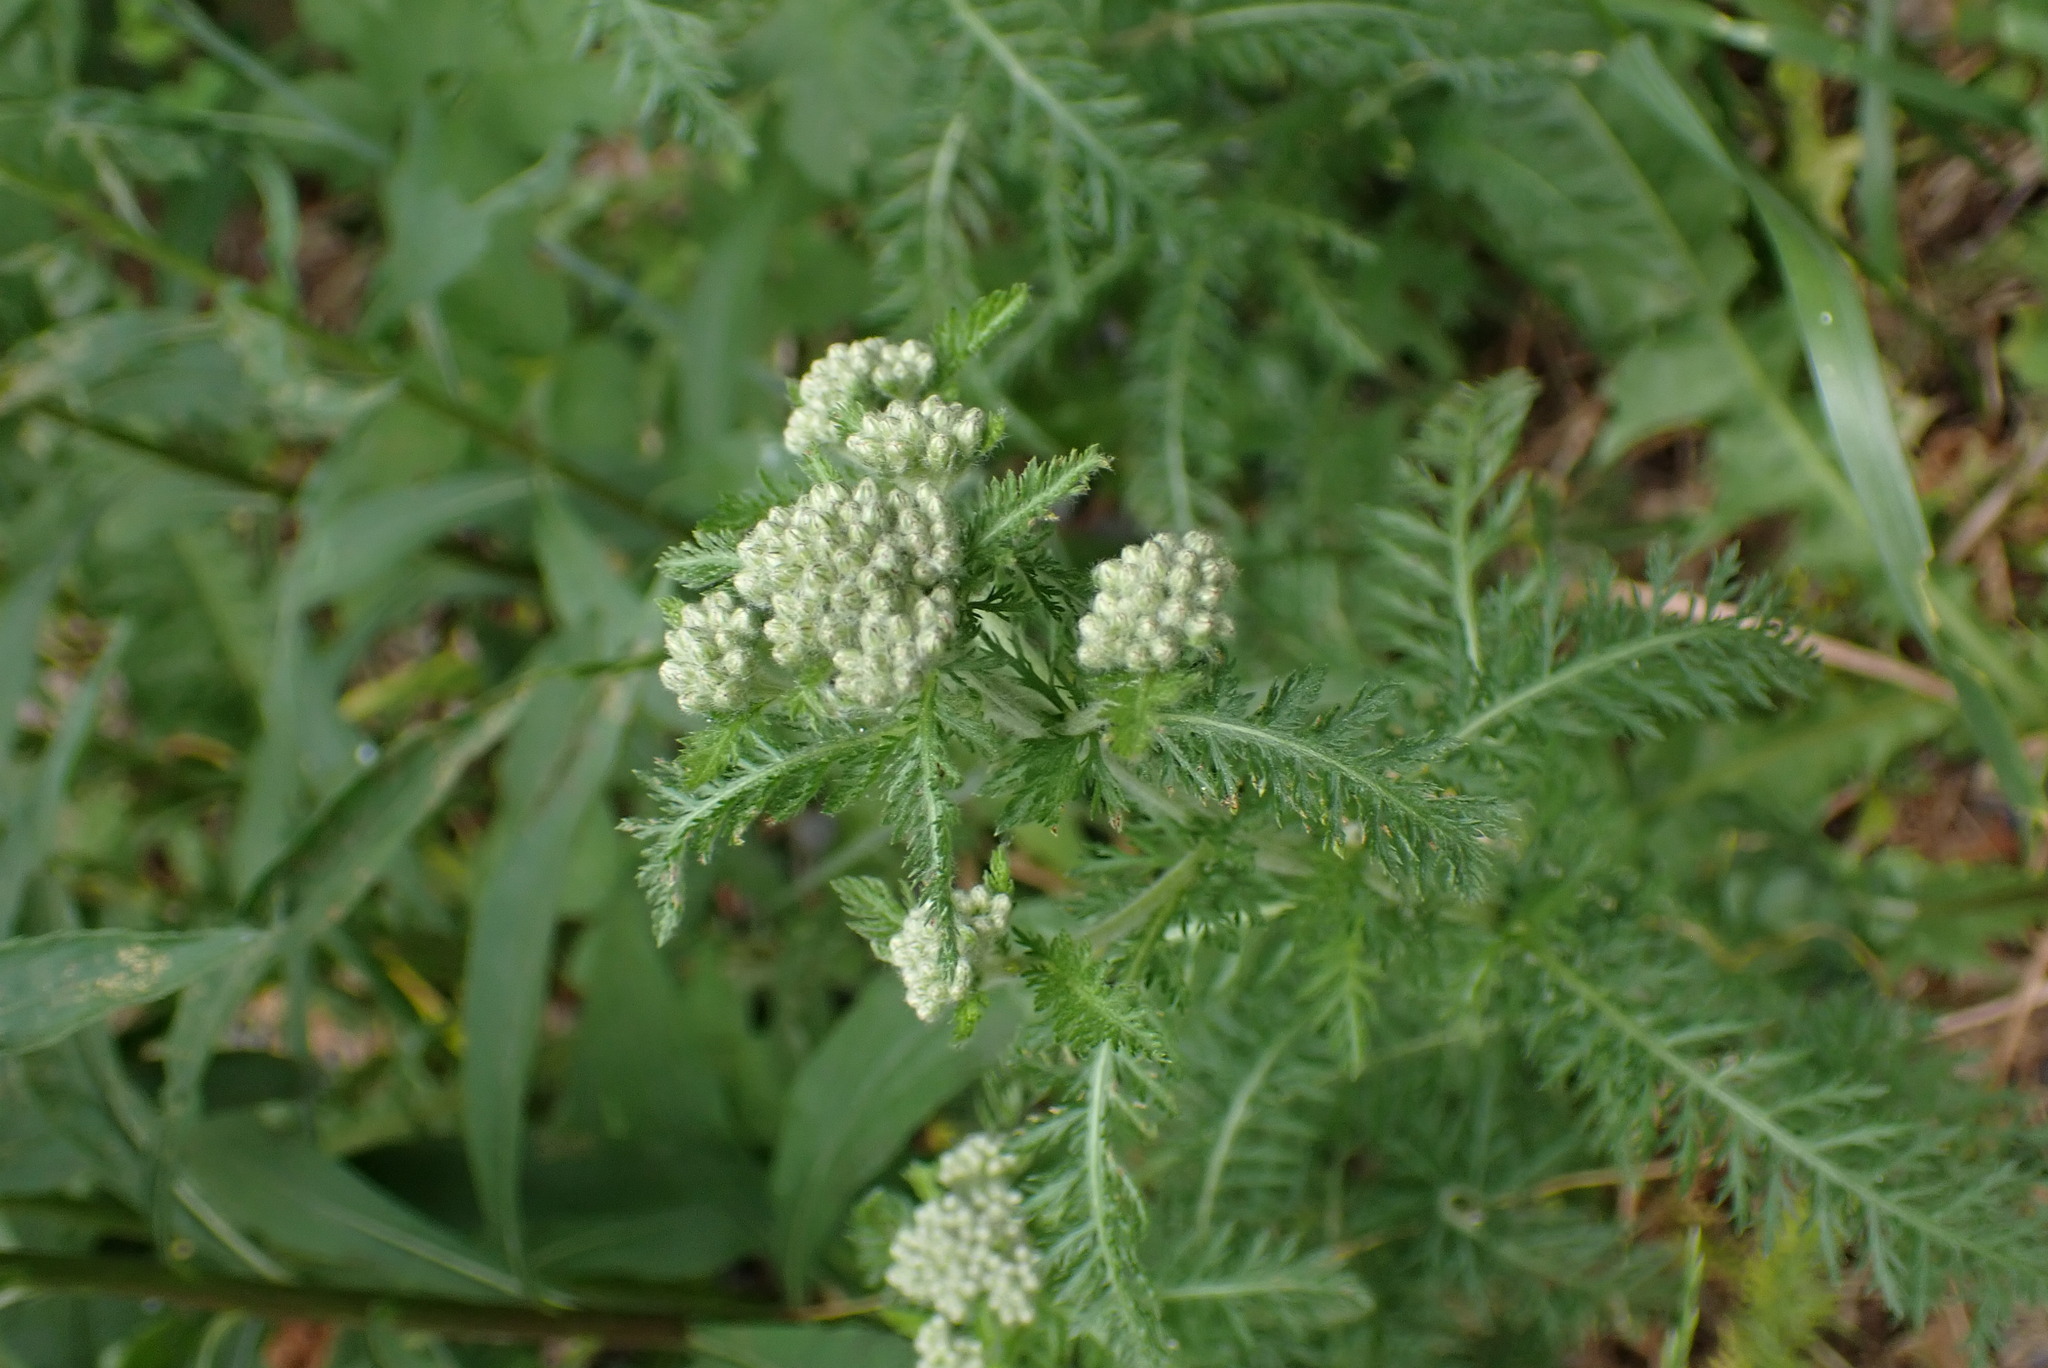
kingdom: Plantae
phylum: Tracheophyta
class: Magnoliopsida
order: Asterales
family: Asteraceae
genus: Achillea
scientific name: Achillea millefolium
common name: Yarrow
